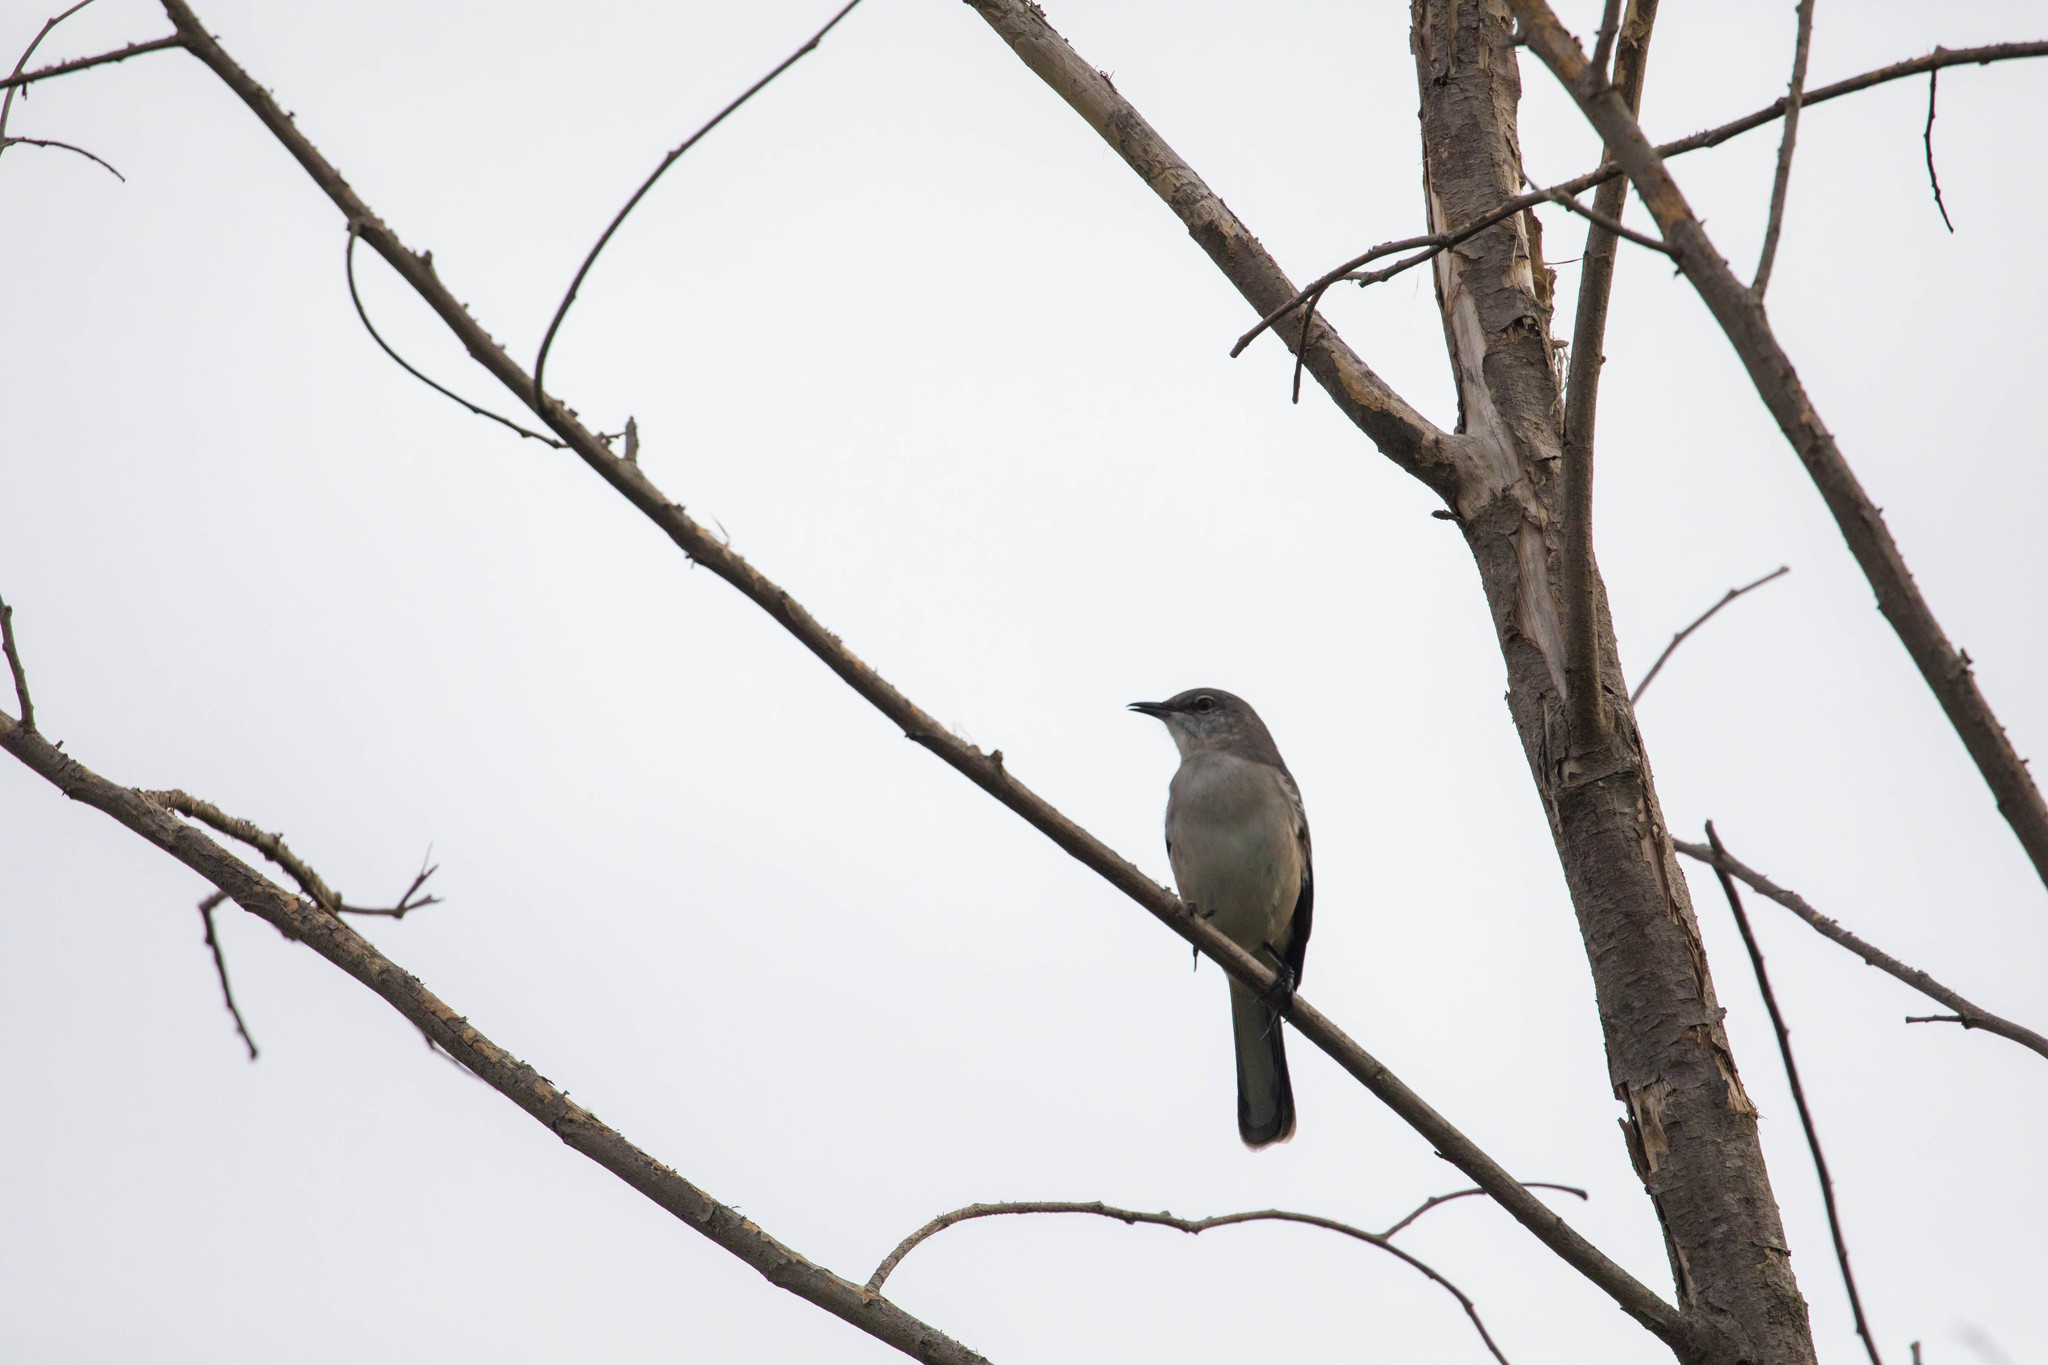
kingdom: Animalia
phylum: Chordata
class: Aves
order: Passeriformes
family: Mimidae
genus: Mimus
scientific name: Mimus polyglottos
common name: Northern mockingbird
